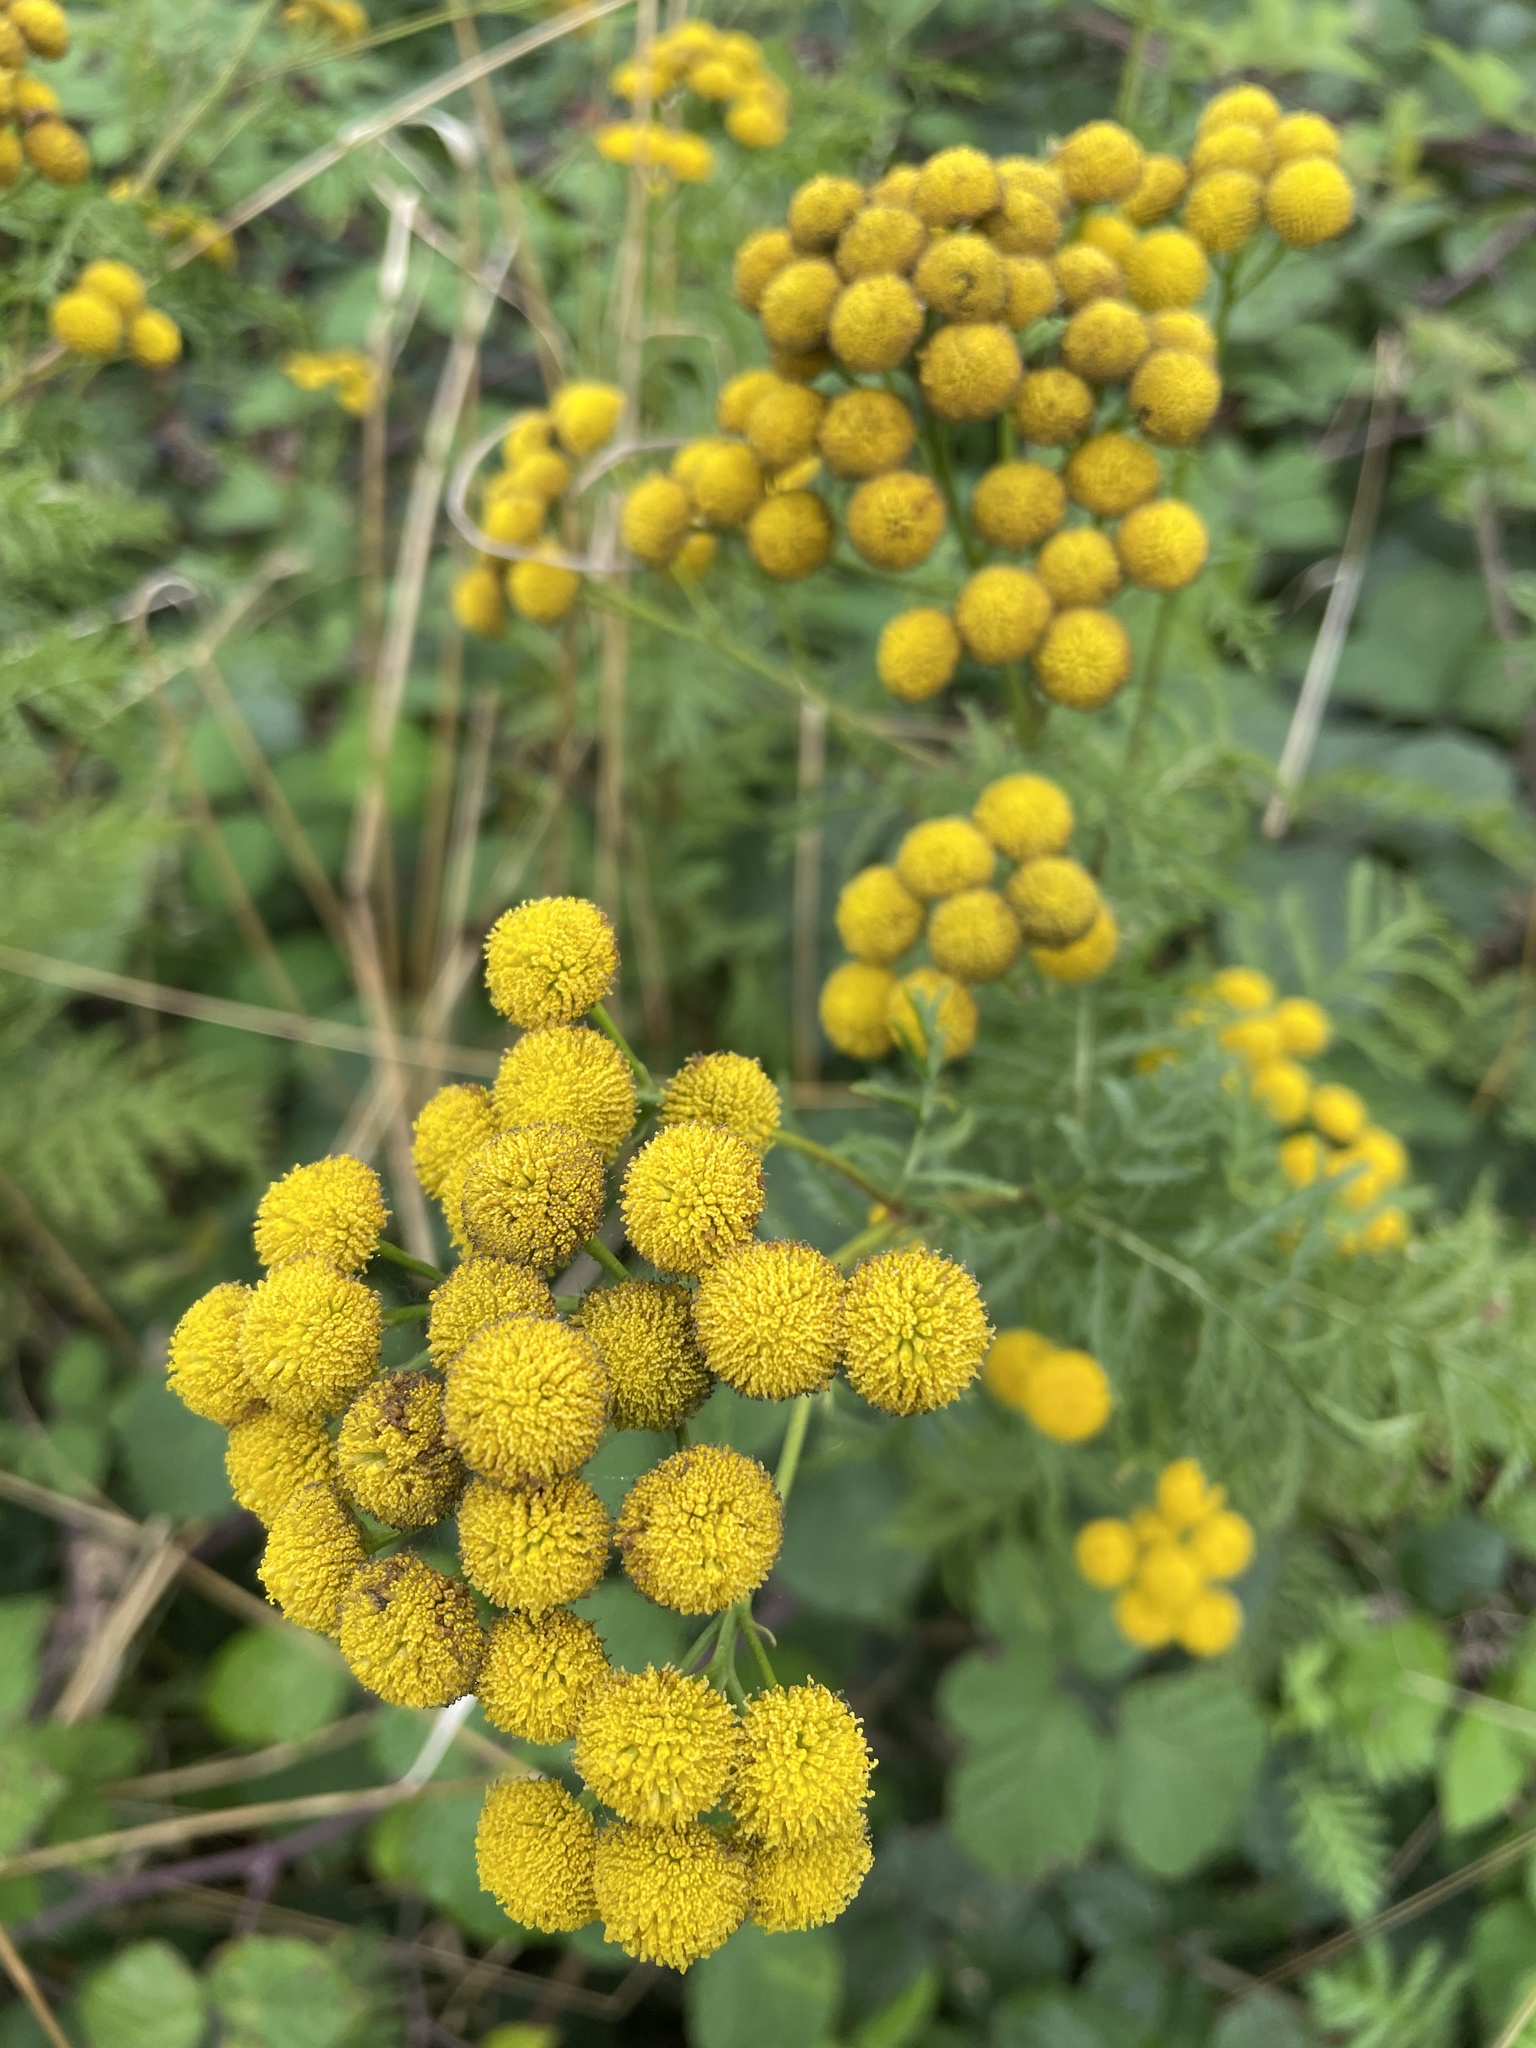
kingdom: Plantae
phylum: Tracheophyta
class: Magnoliopsida
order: Asterales
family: Asteraceae
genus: Tanacetum
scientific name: Tanacetum vulgare
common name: Common tansy
